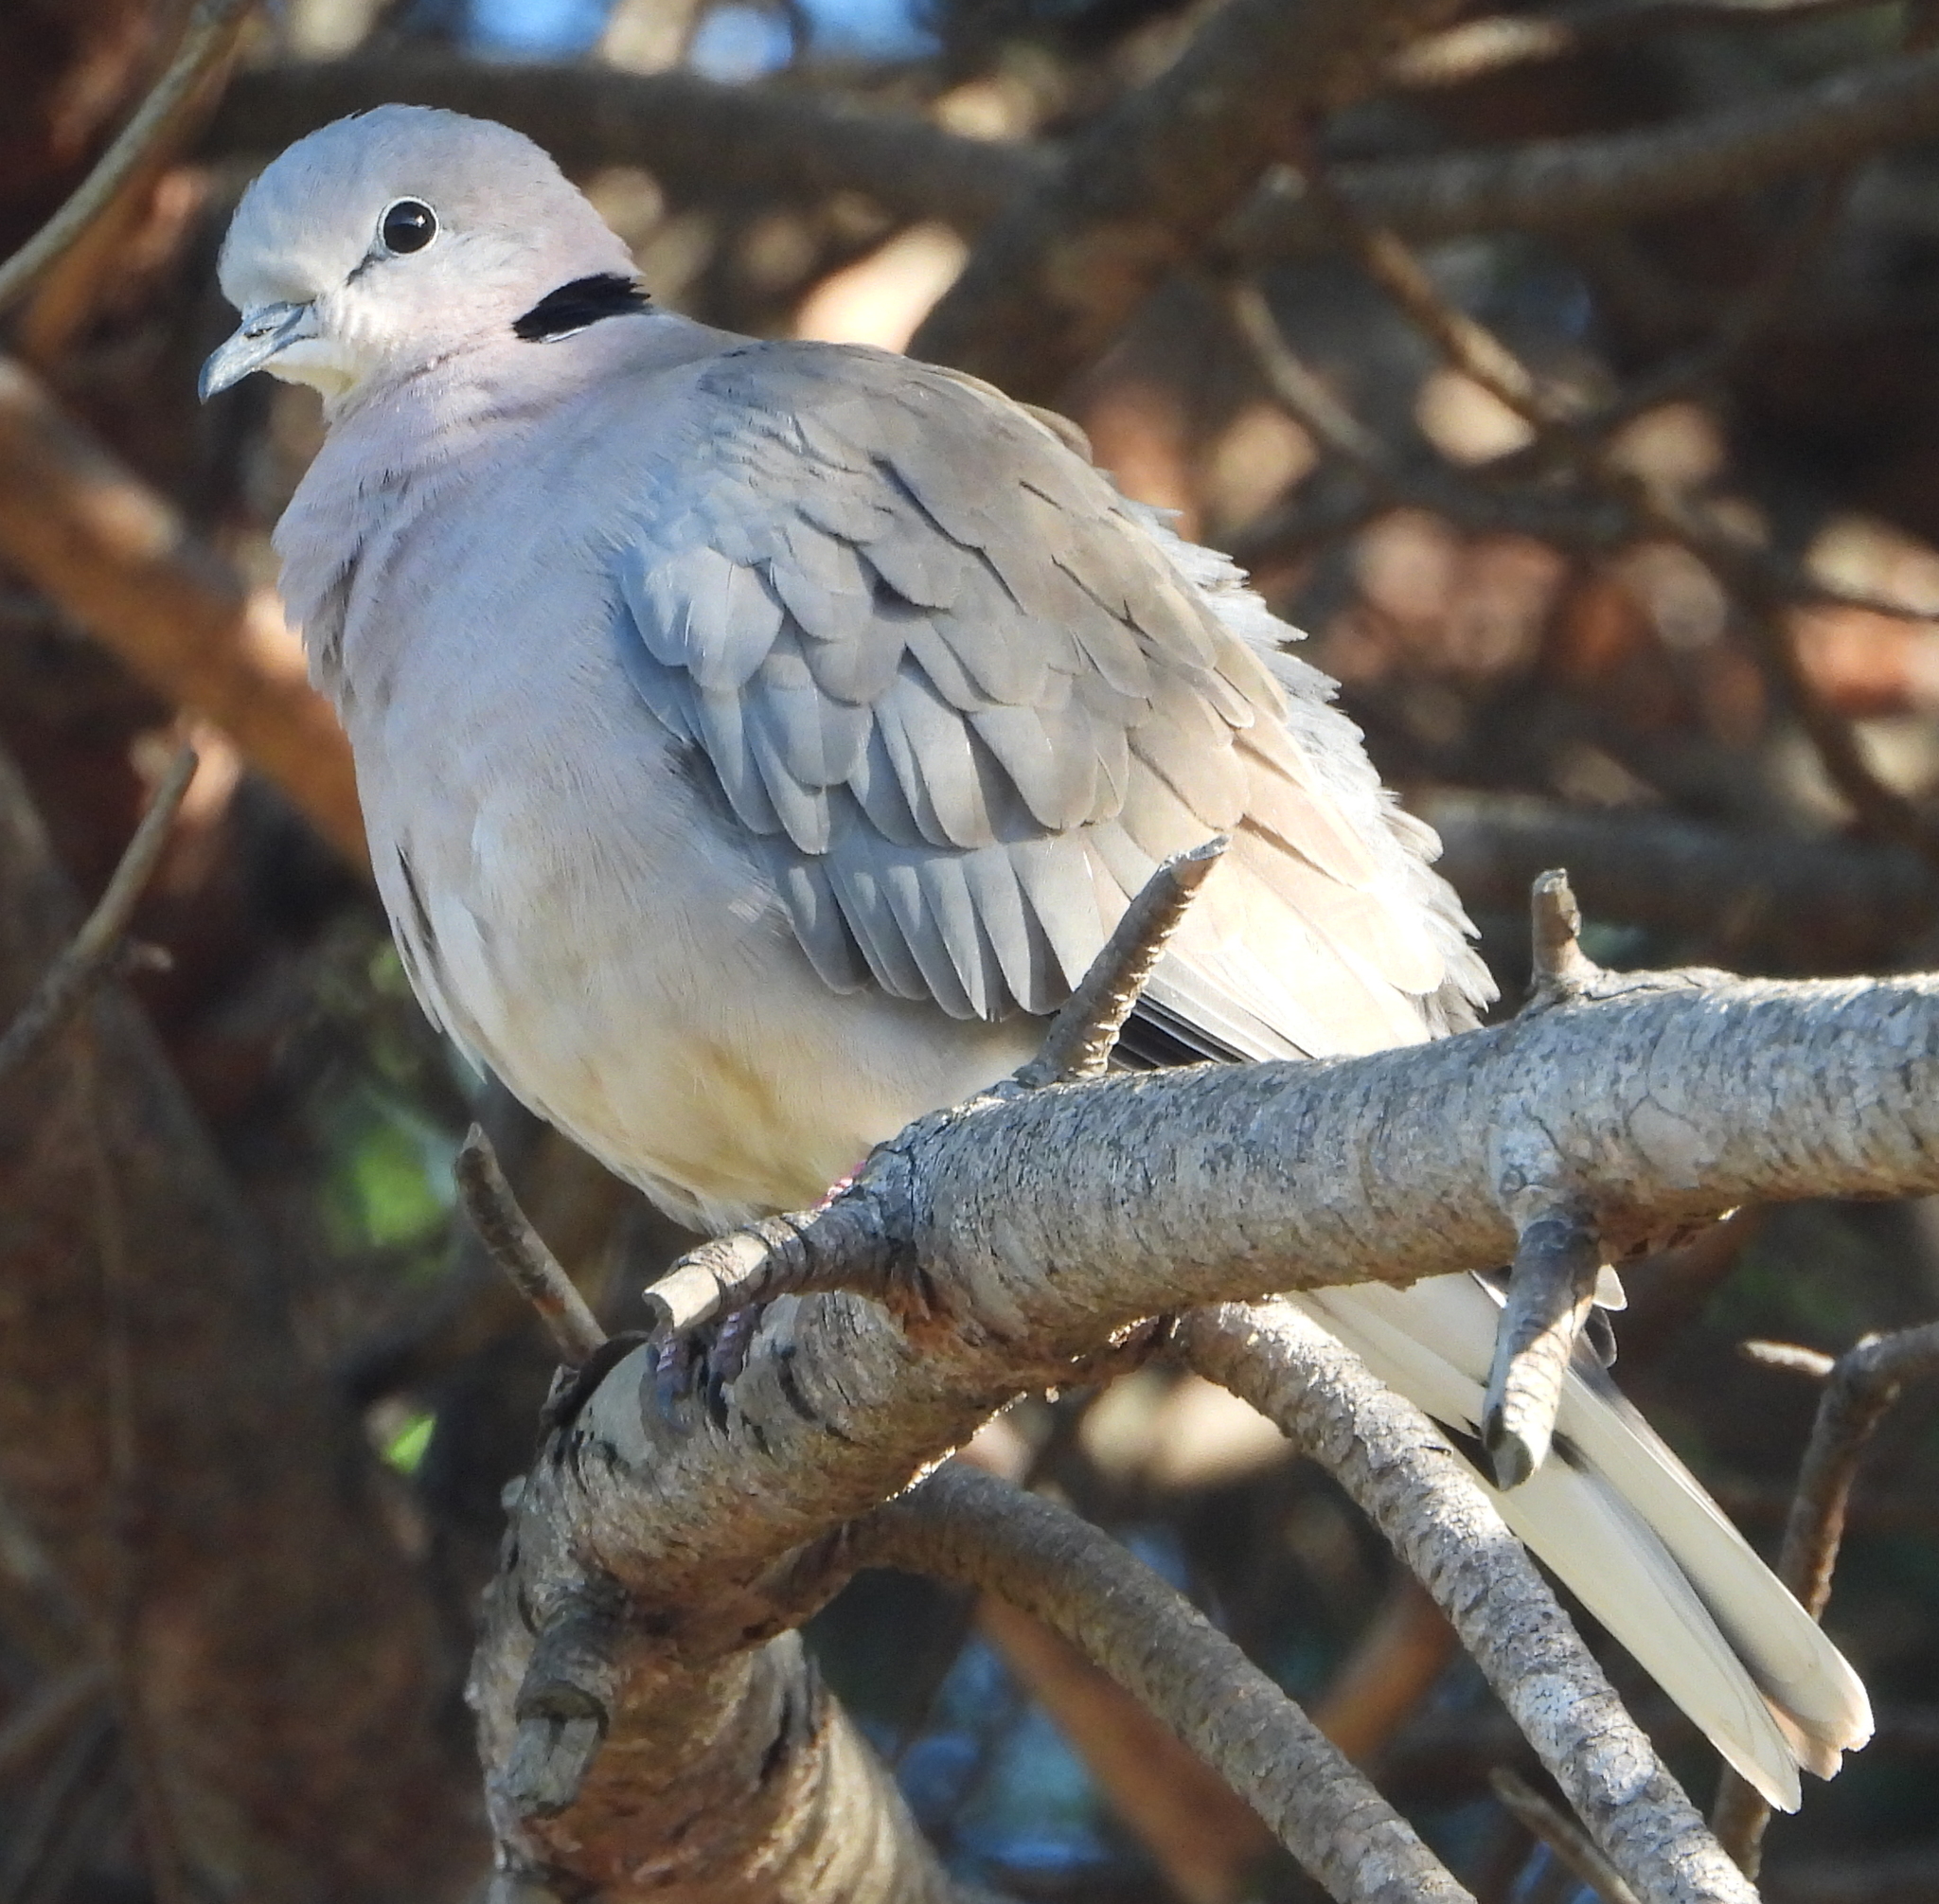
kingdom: Animalia
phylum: Chordata
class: Aves
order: Columbiformes
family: Columbidae
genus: Streptopelia
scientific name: Streptopelia capicola
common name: Ring-necked dove
